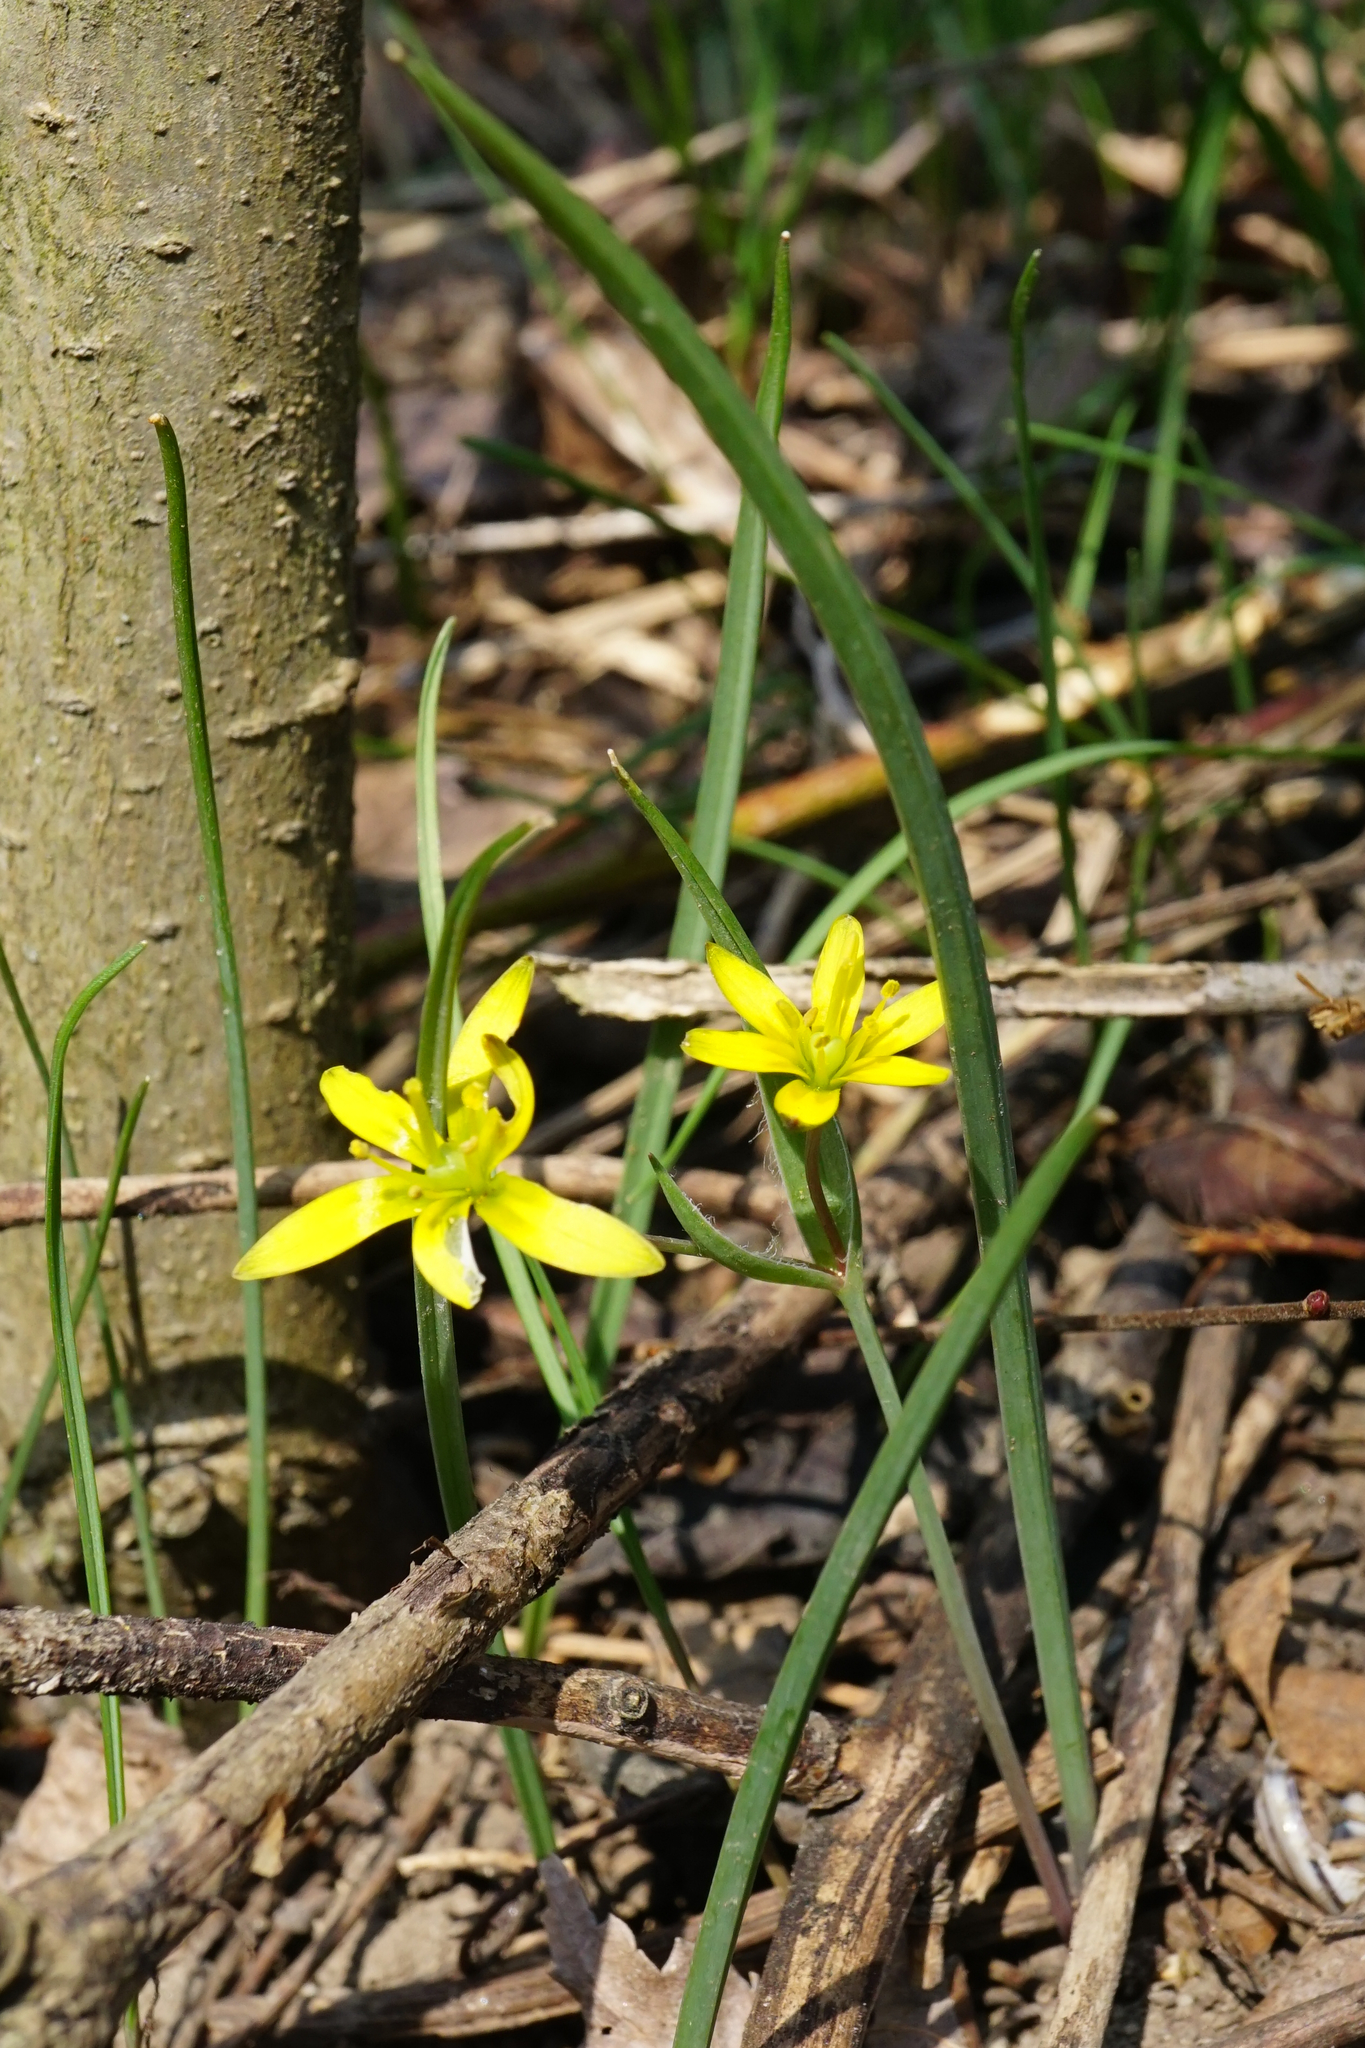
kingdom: Plantae
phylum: Tracheophyta
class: Liliopsida
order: Liliales
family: Liliaceae
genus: Gagea
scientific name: Gagea transversalis
